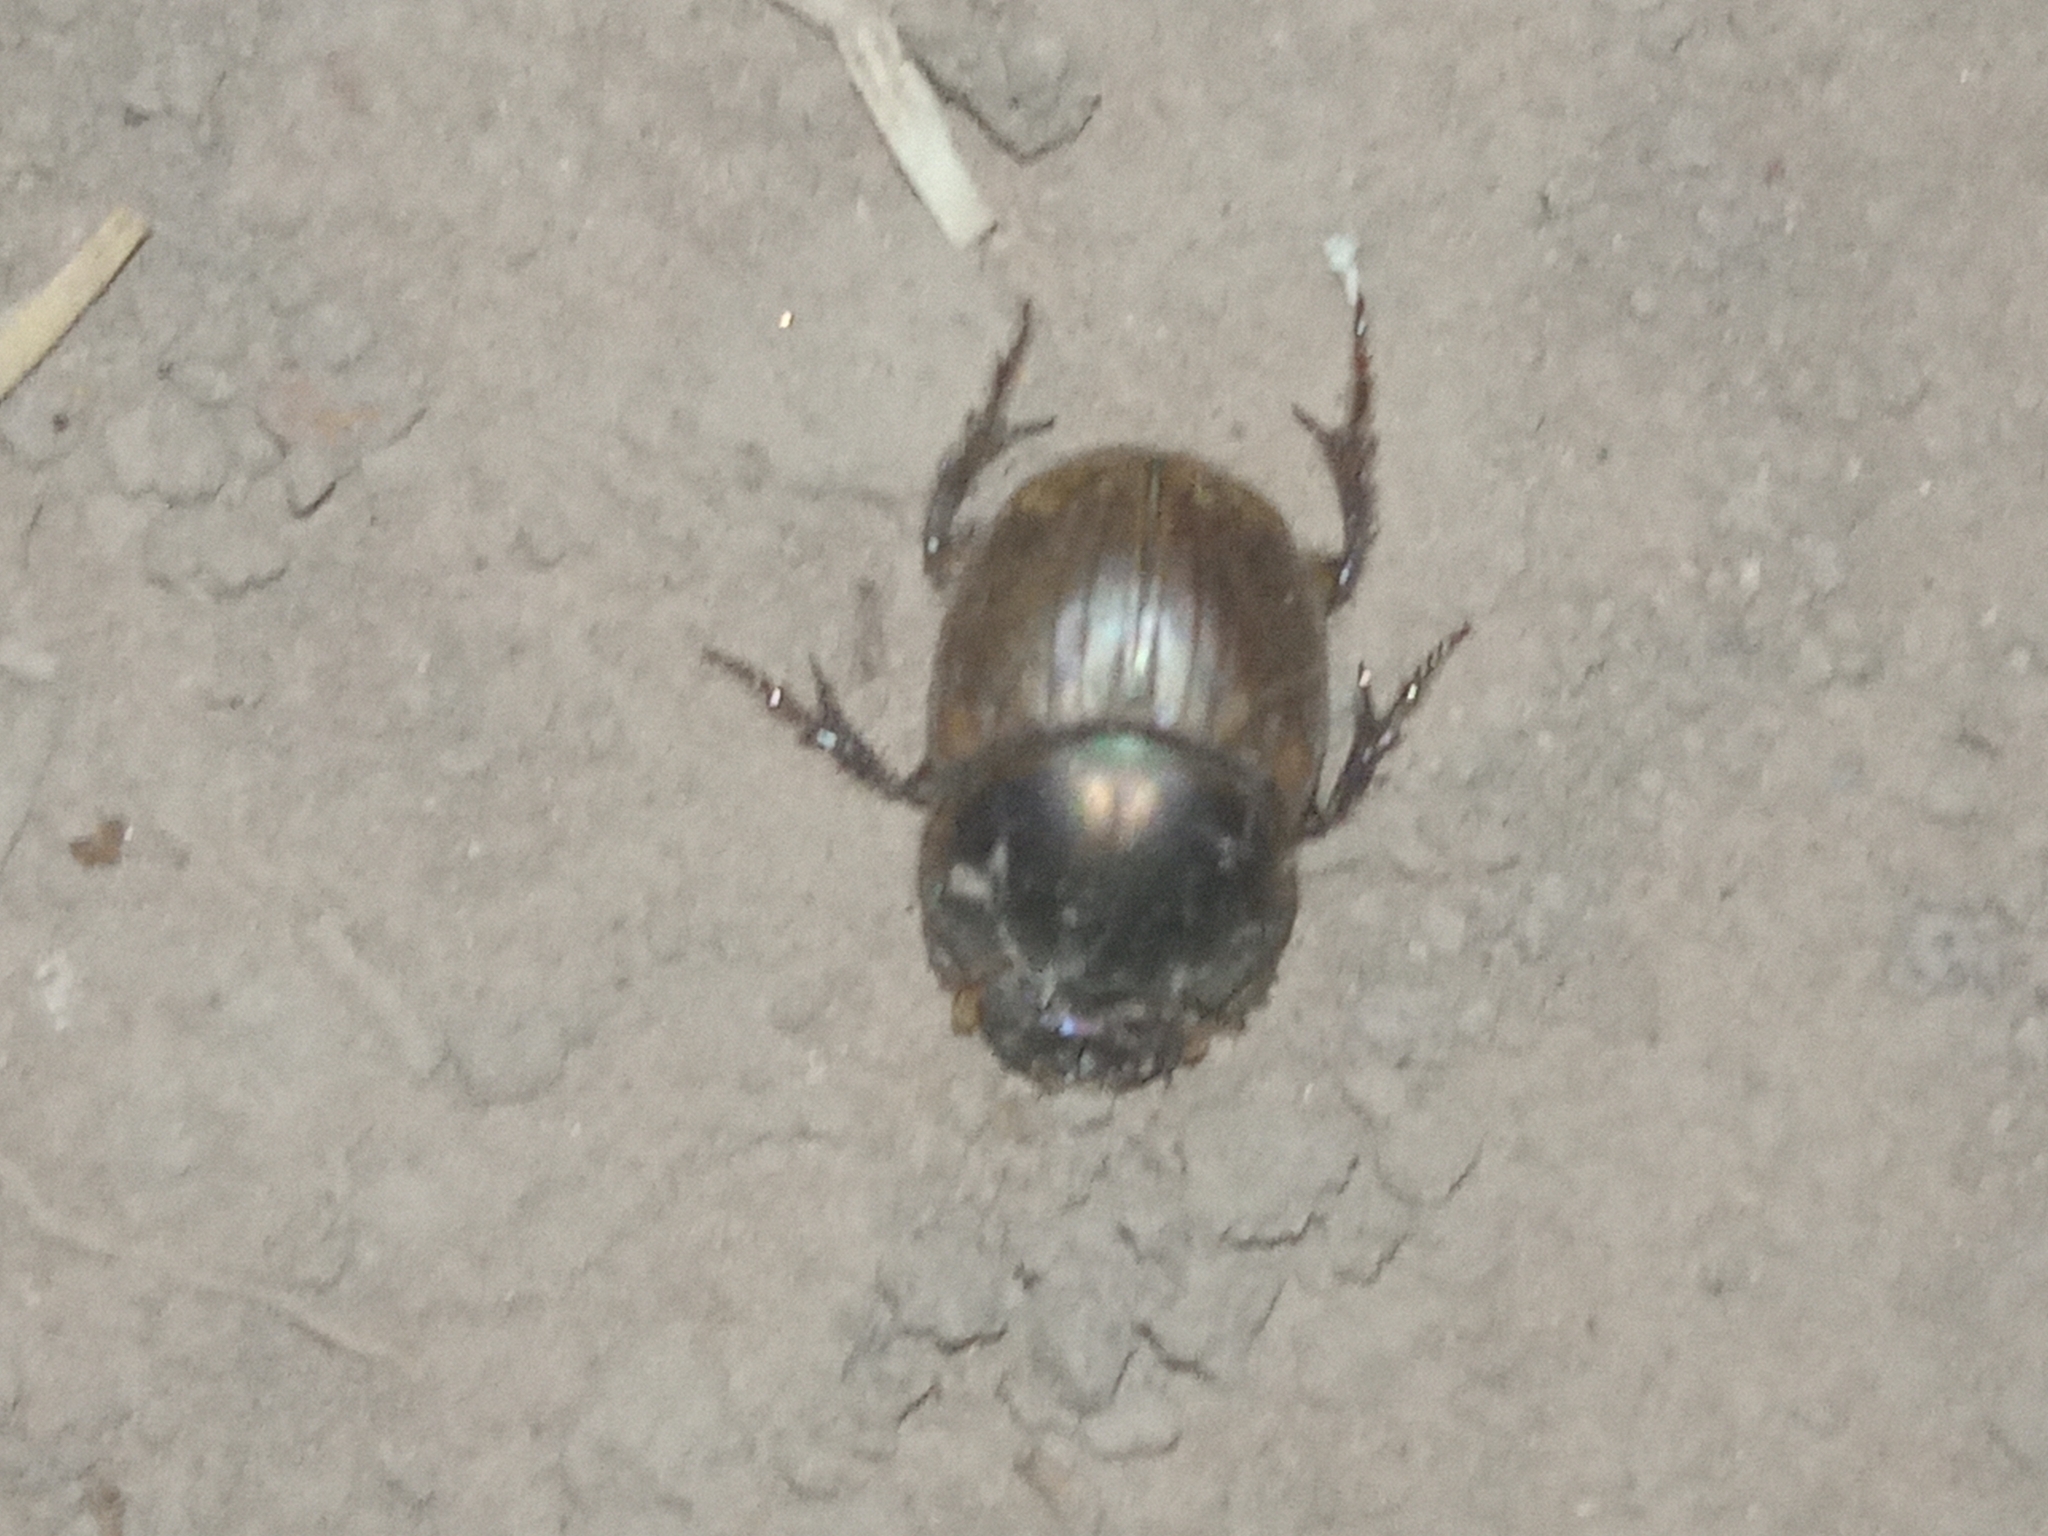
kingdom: Animalia
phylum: Arthropoda
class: Insecta
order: Coleoptera
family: Scarabaeidae
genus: Digitonthophagus
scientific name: Digitonthophagus gazella
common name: Brown dung beetle
